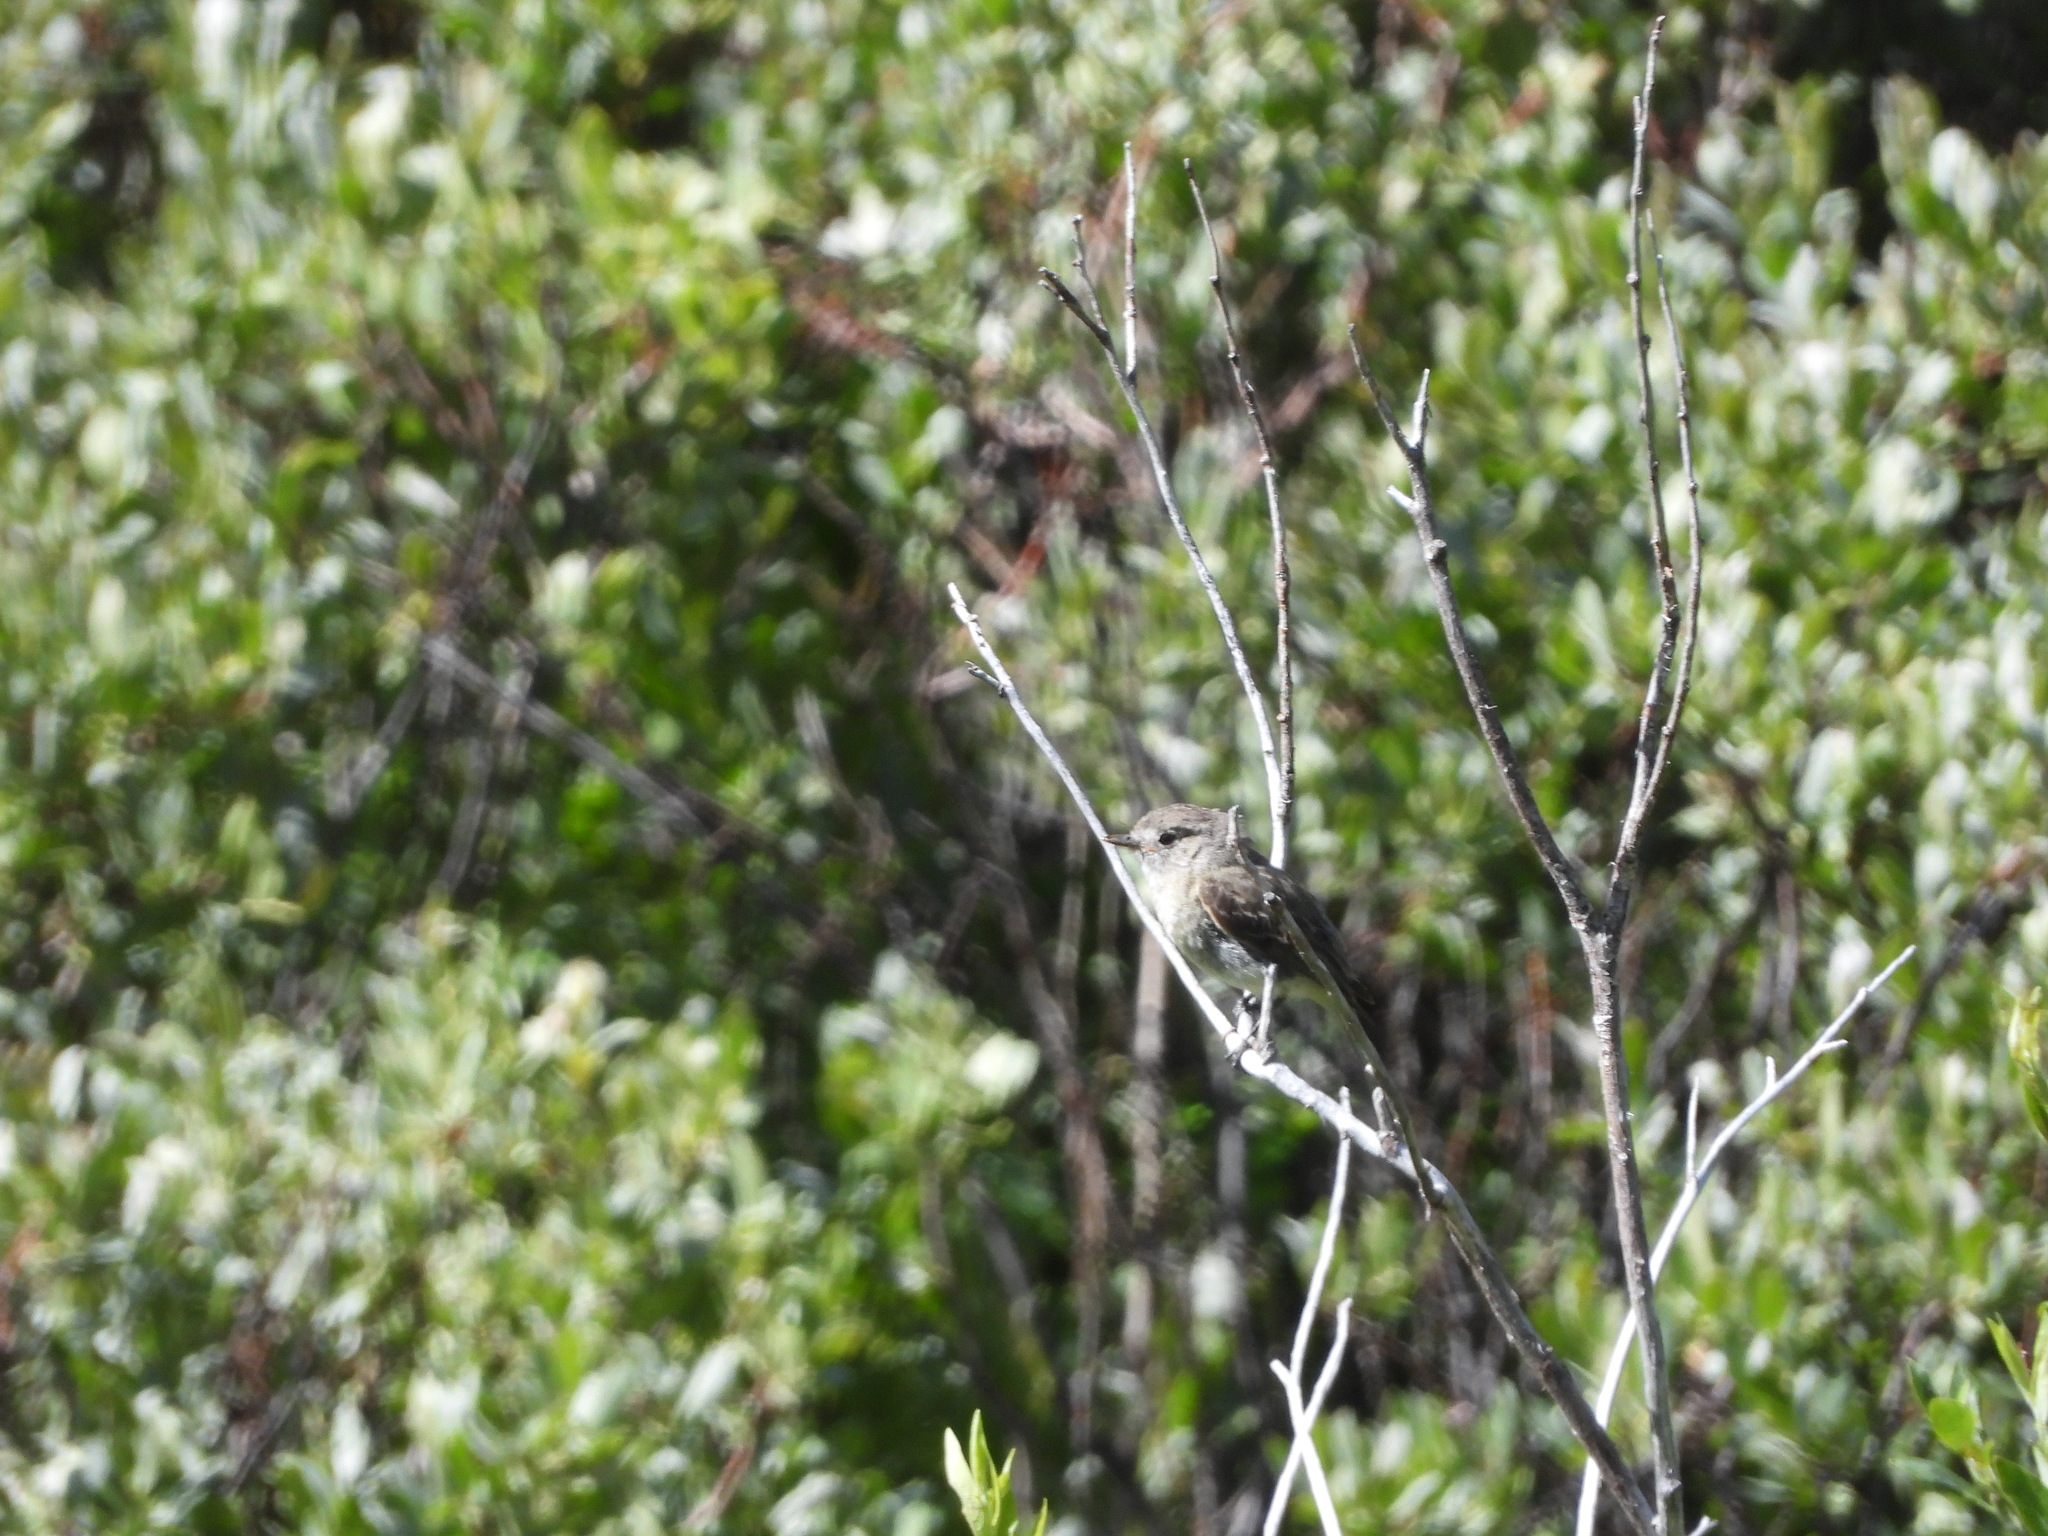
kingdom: Animalia
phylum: Chordata
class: Aves
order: Passeriformes
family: Tyrannidae
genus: Contopus
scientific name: Contopus sordidulus
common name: Western wood-pewee
